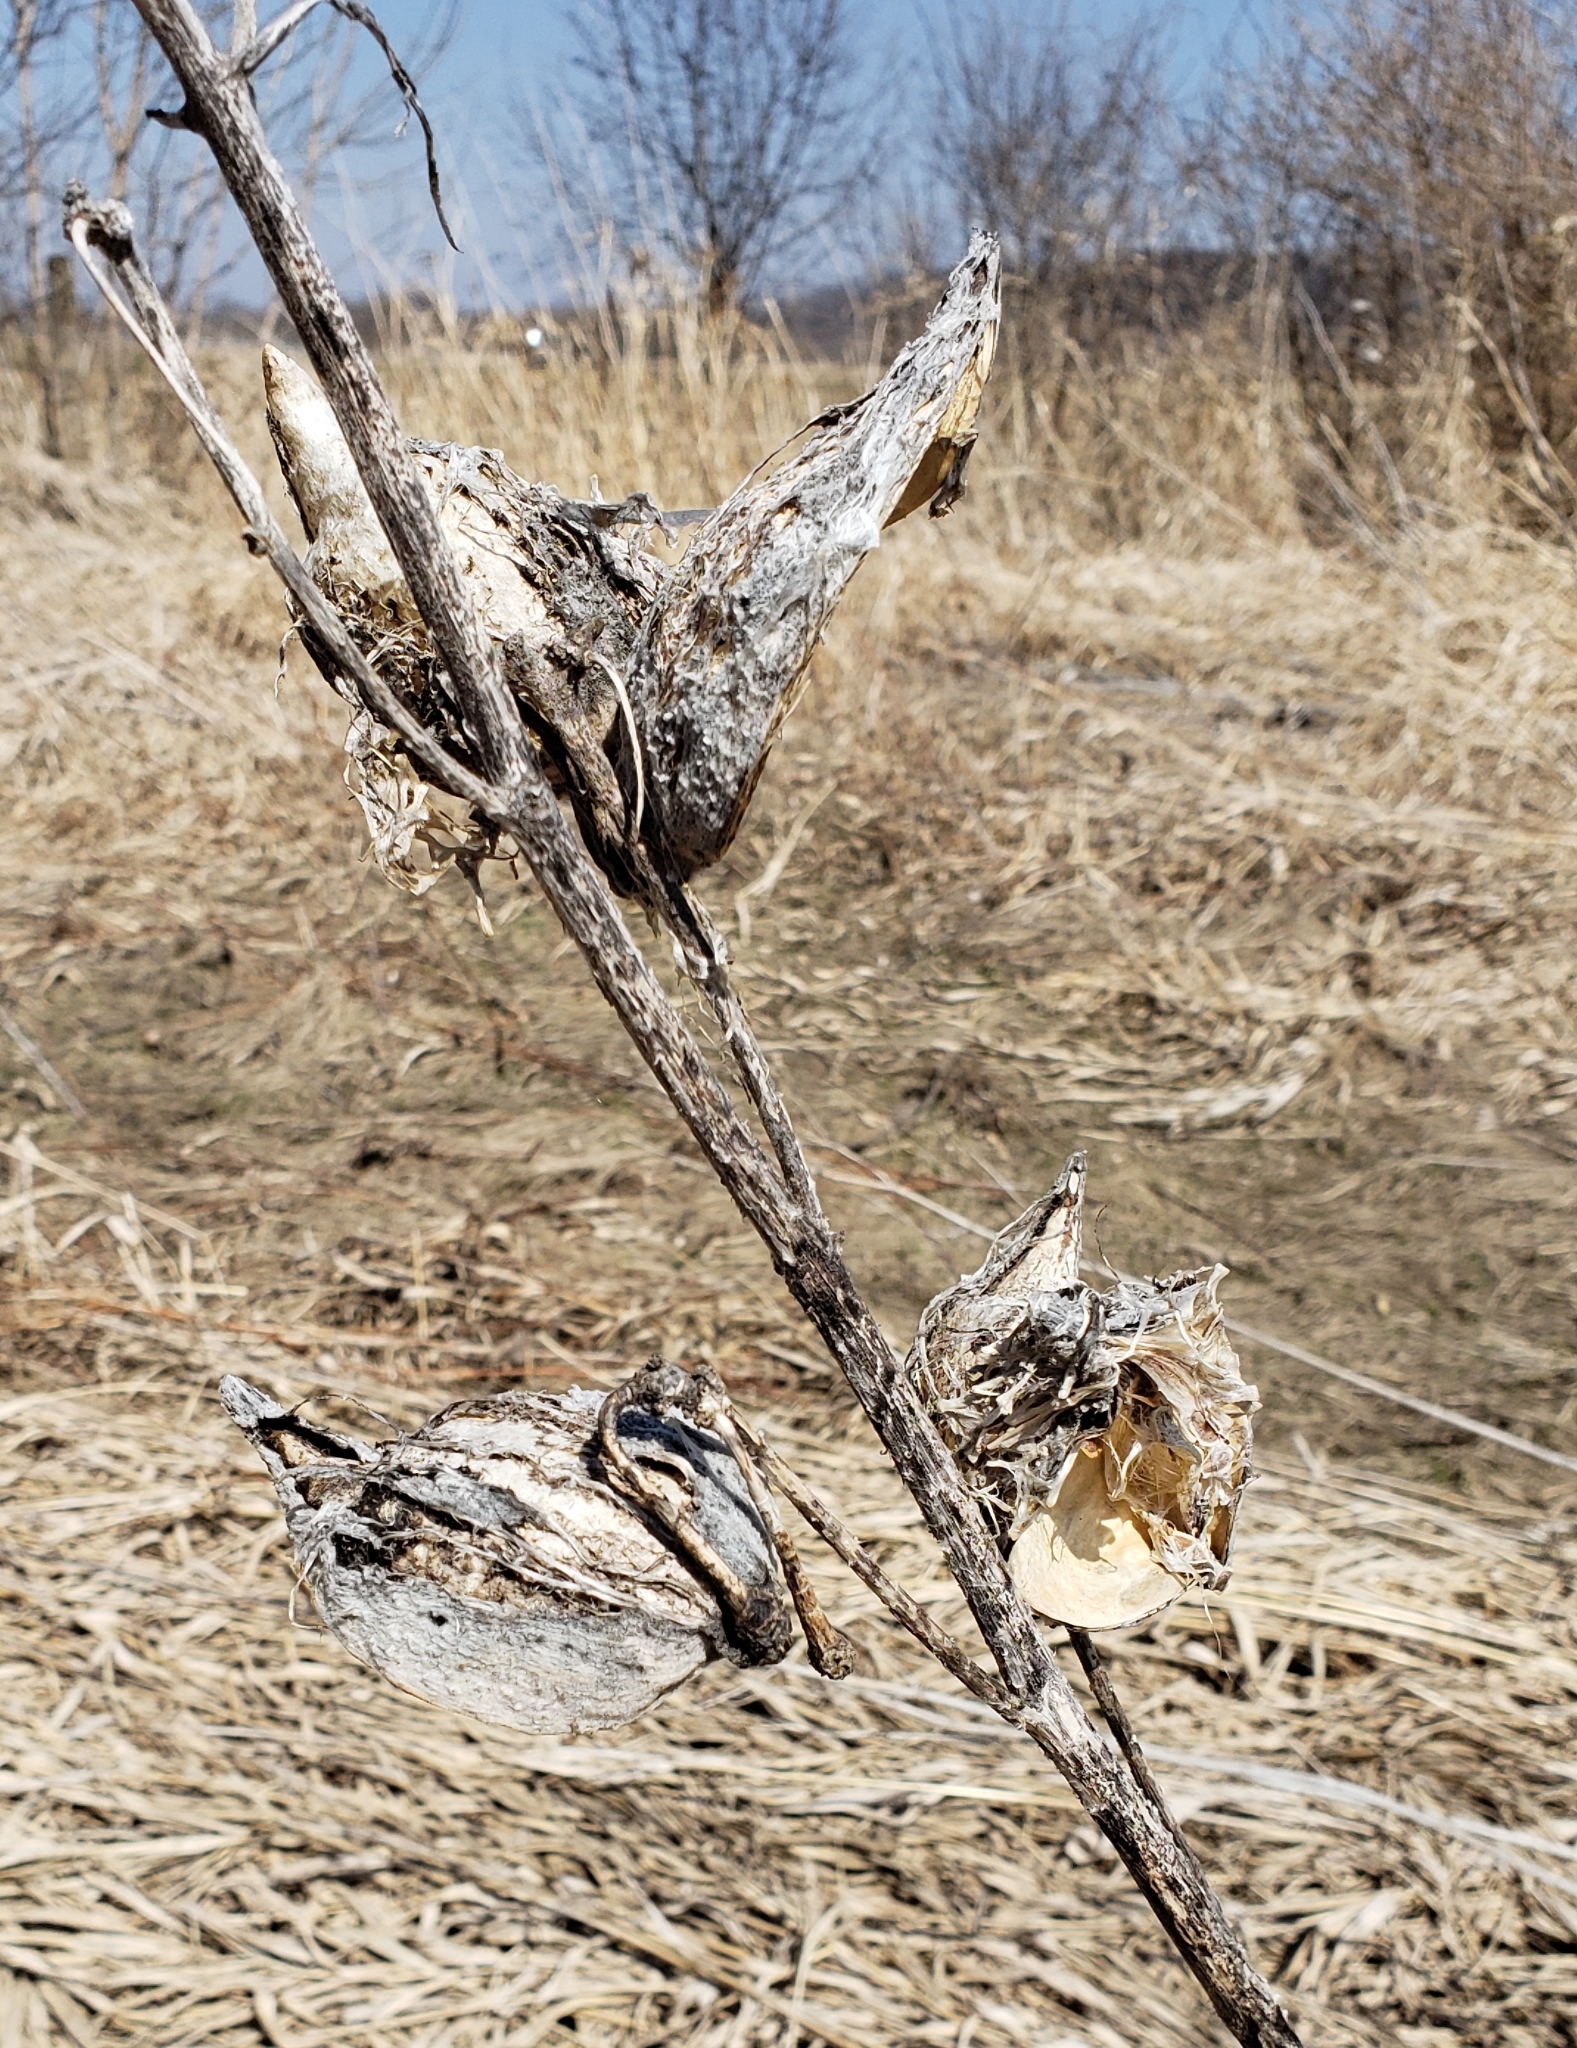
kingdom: Plantae
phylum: Tracheophyta
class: Magnoliopsida
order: Gentianales
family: Apocynaceae
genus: Asclepias
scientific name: Asclepias syriaca
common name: Common milkweed
